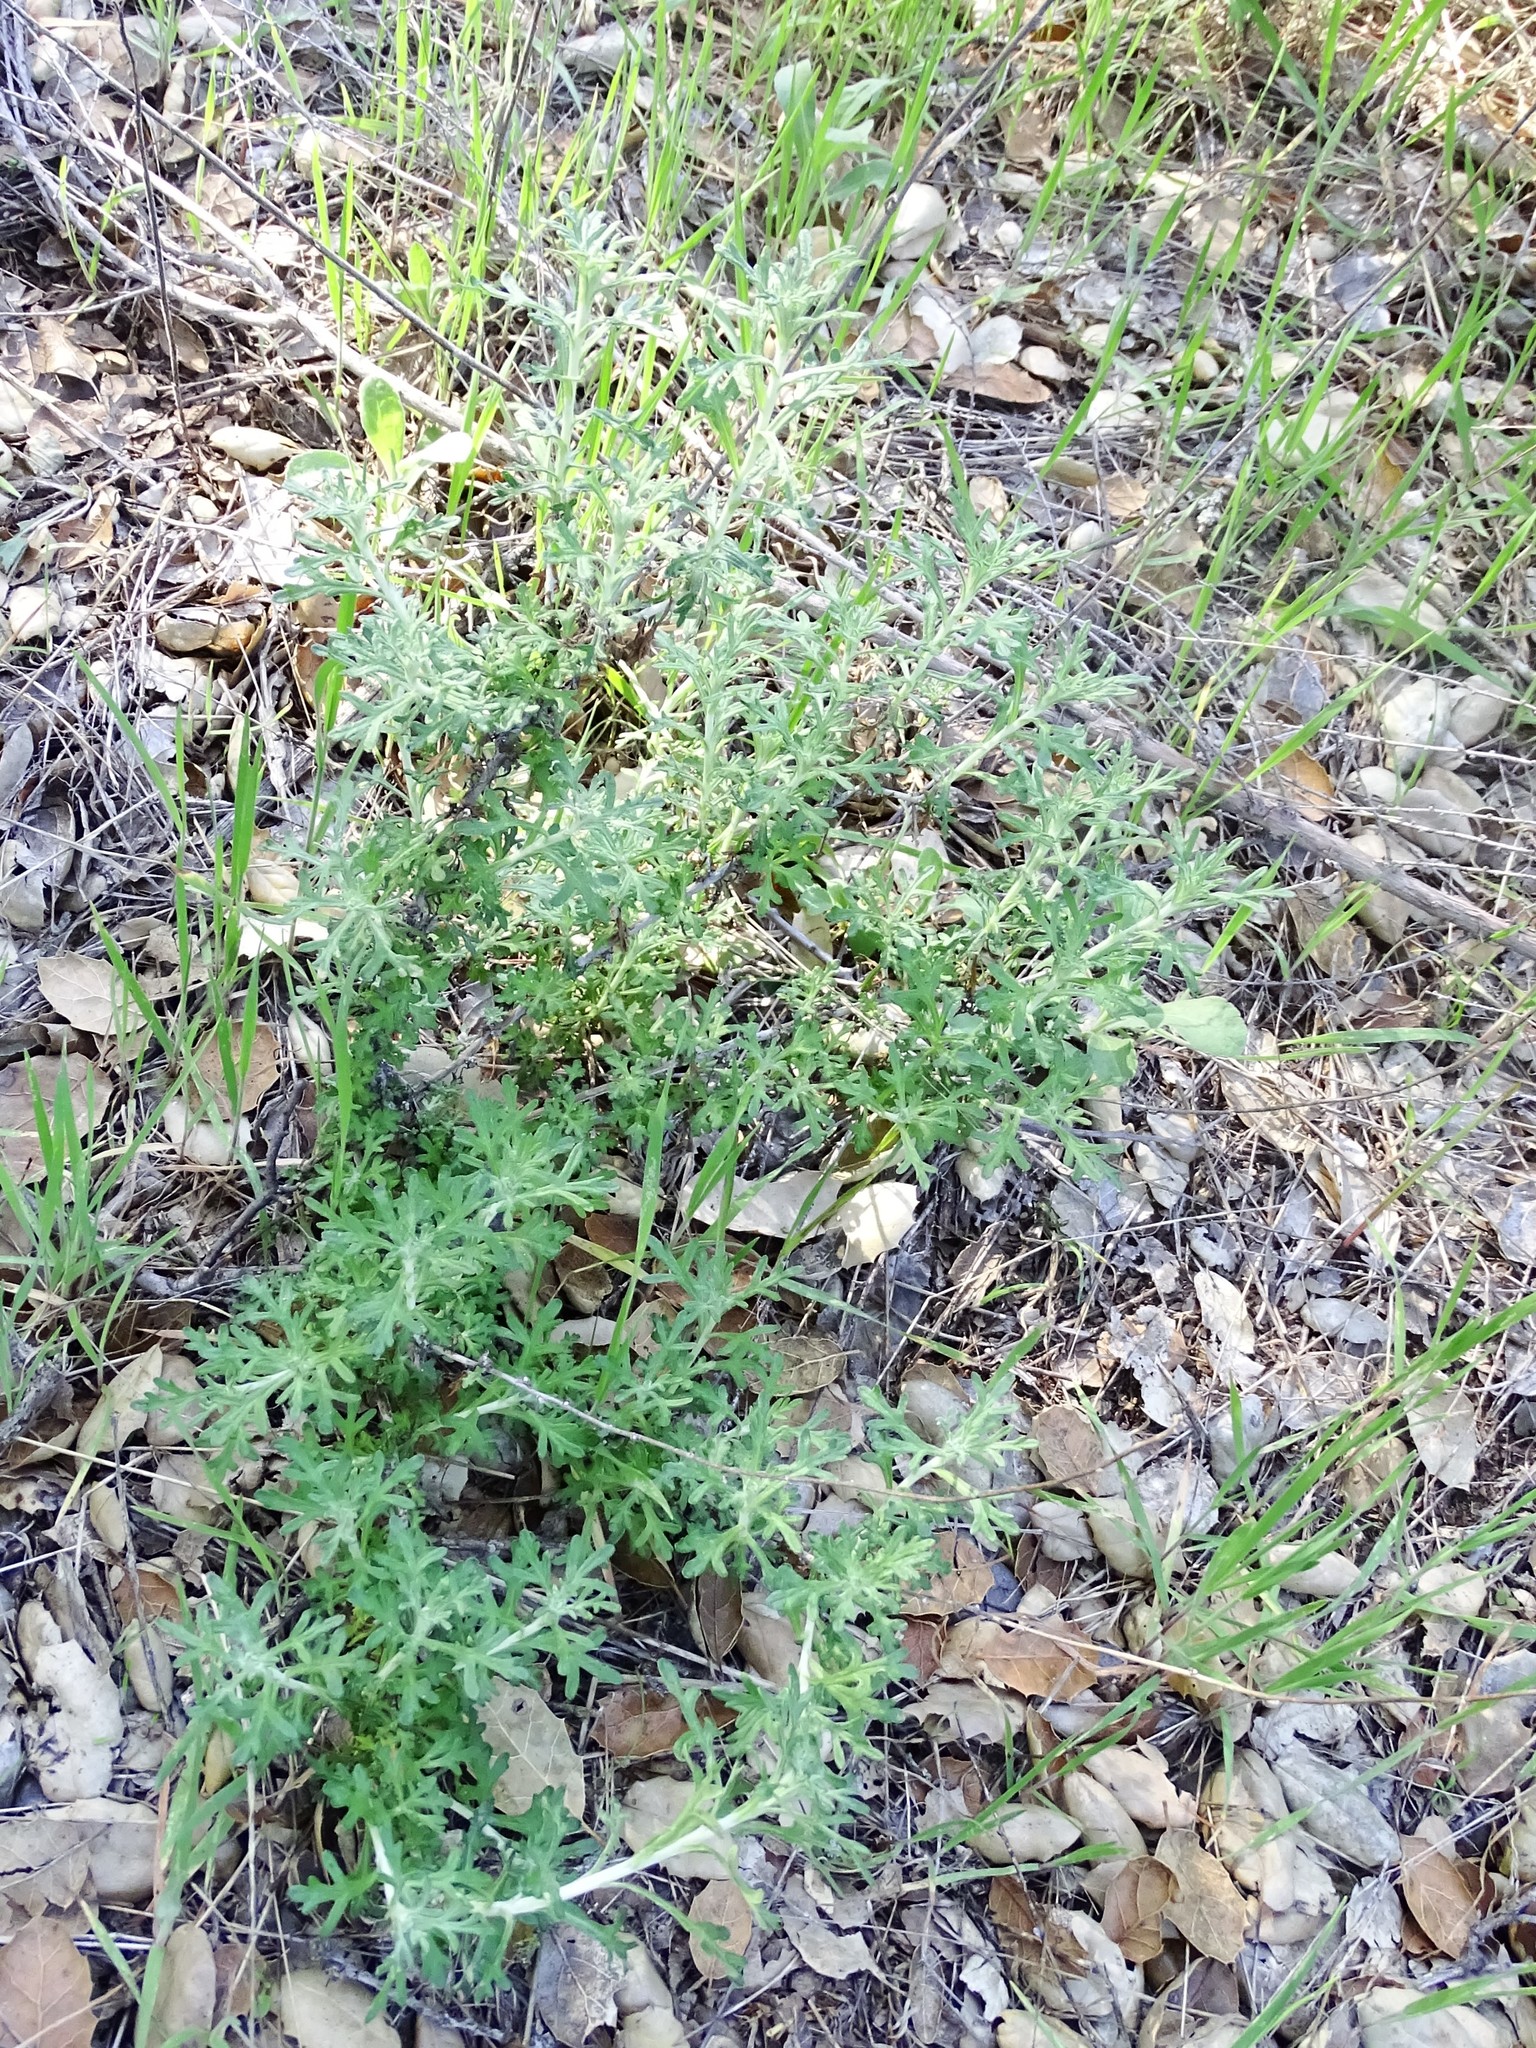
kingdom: Plantae
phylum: Tracheophyta
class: Magnoliopsida
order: Asterales
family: Asteraceae
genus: Eriophyllum
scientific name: Eriophyllum confertiflorum
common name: Golden-yarrow
